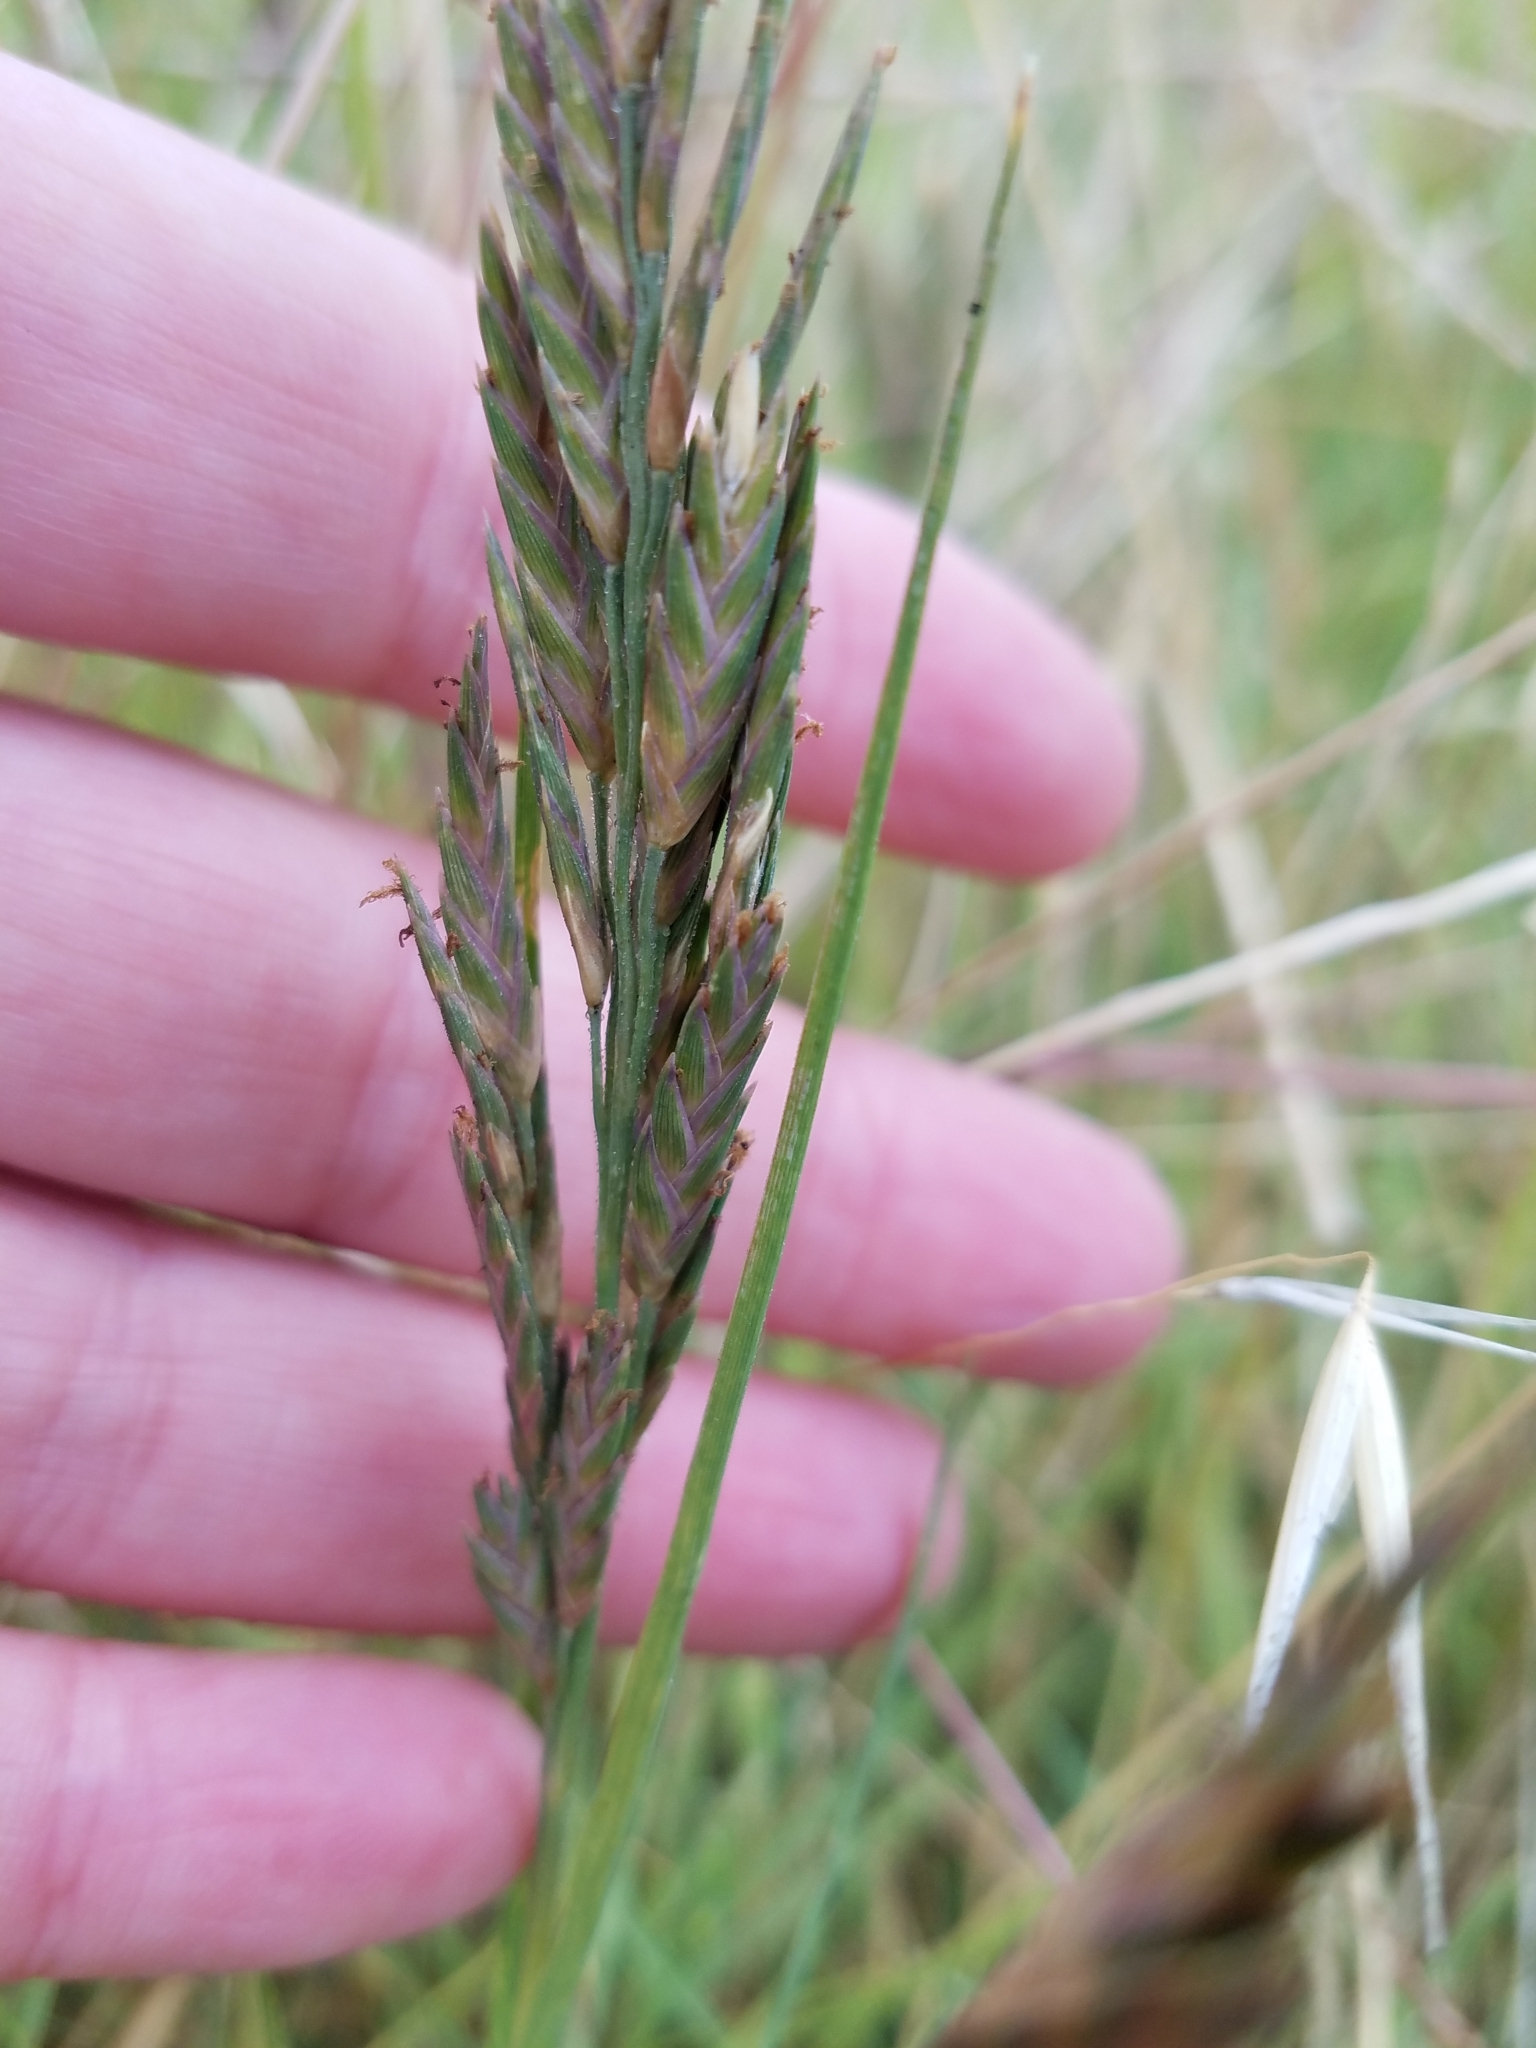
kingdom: Plantae
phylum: Tracheophyta
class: Liliopsida
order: Poales
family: Poaceae
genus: Distichlis
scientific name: Distichlis spicata
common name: Saltgrass
